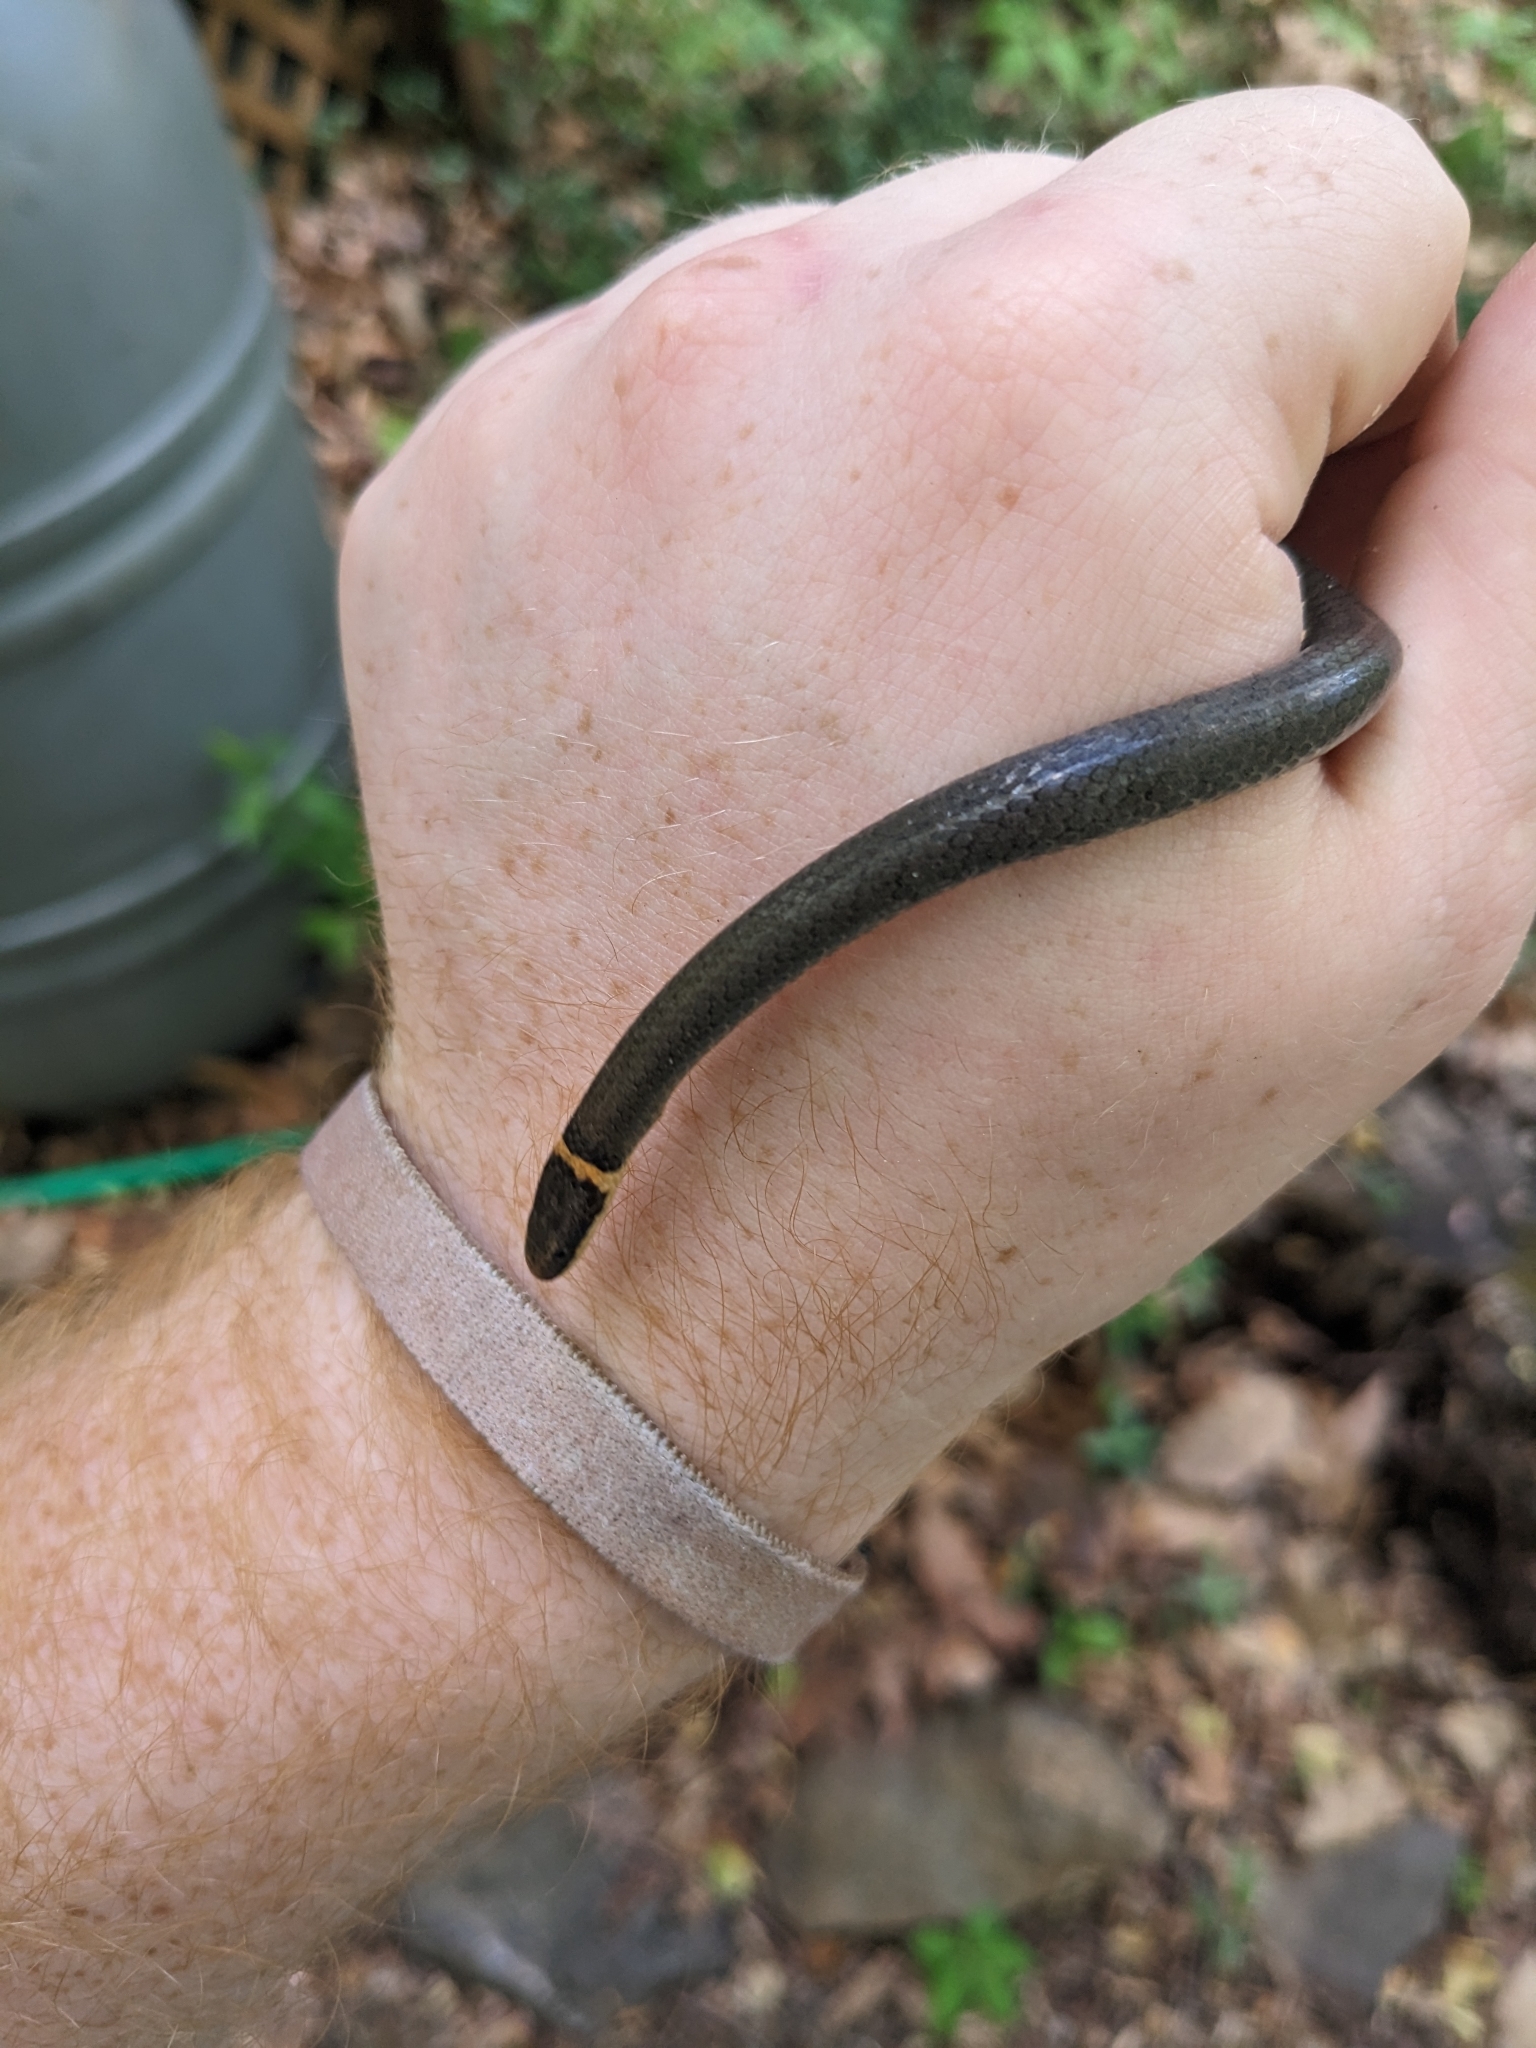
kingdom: Animalia
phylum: Chordata
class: Squamata
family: Colubridae
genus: Diadophis
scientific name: Diadophis punctatus
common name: Ringneck snake
